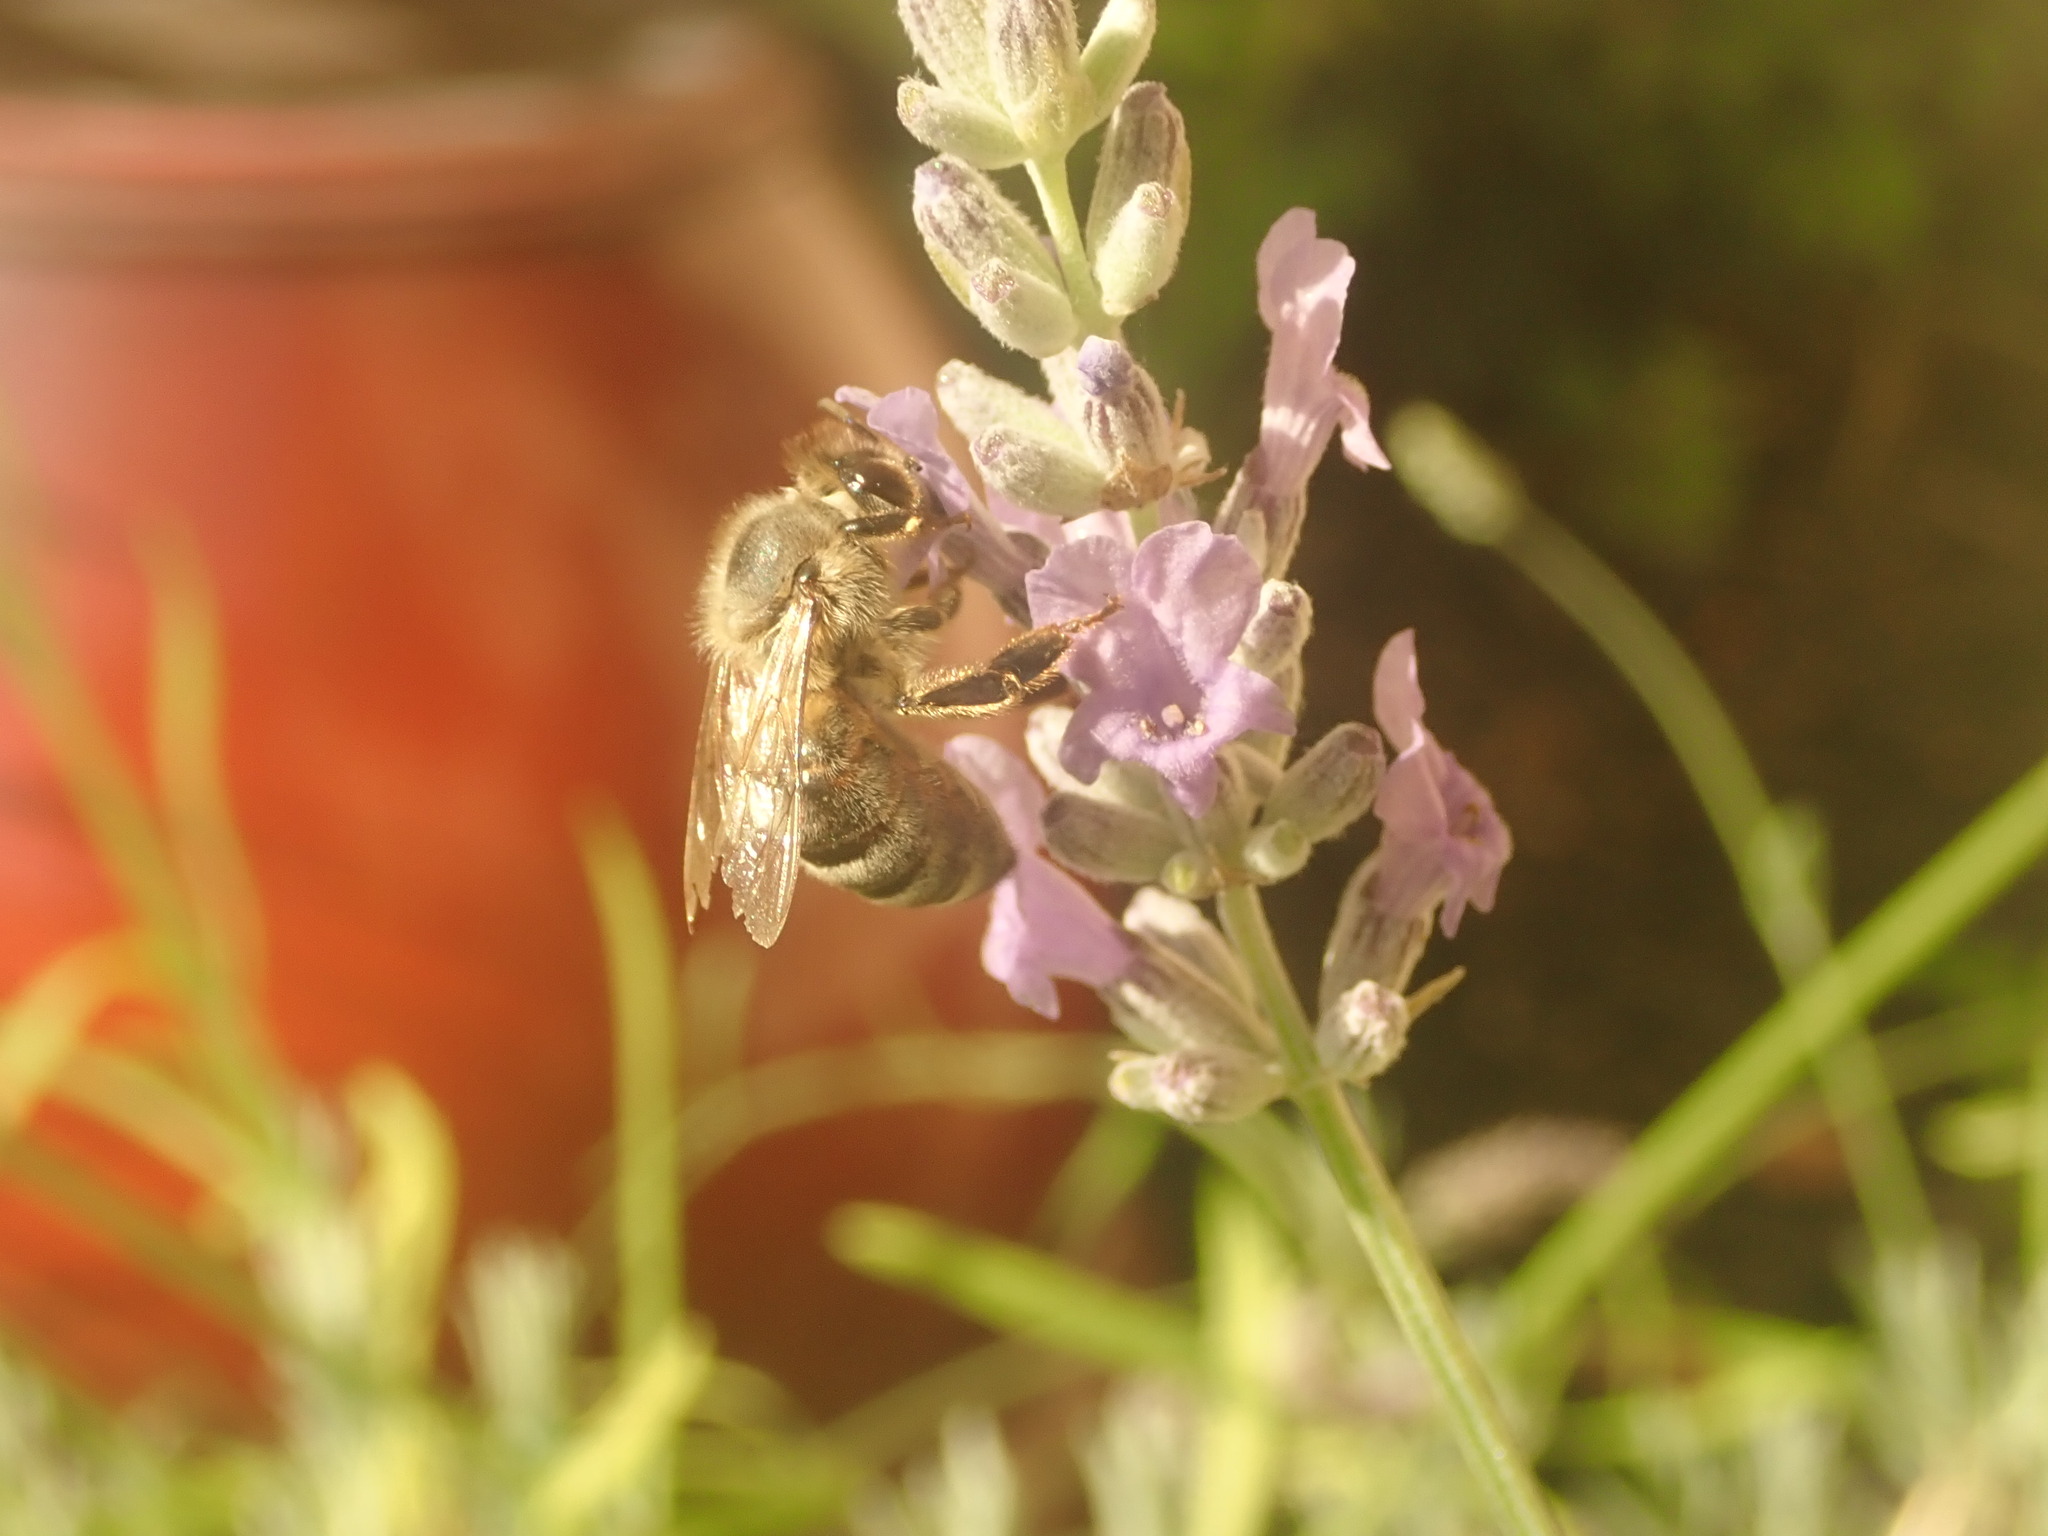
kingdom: Animalia
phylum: Arthropoda
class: Insecta
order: Hymenoptera
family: Apidae
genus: Apis
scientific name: Apis mellifera
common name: Honey bee
